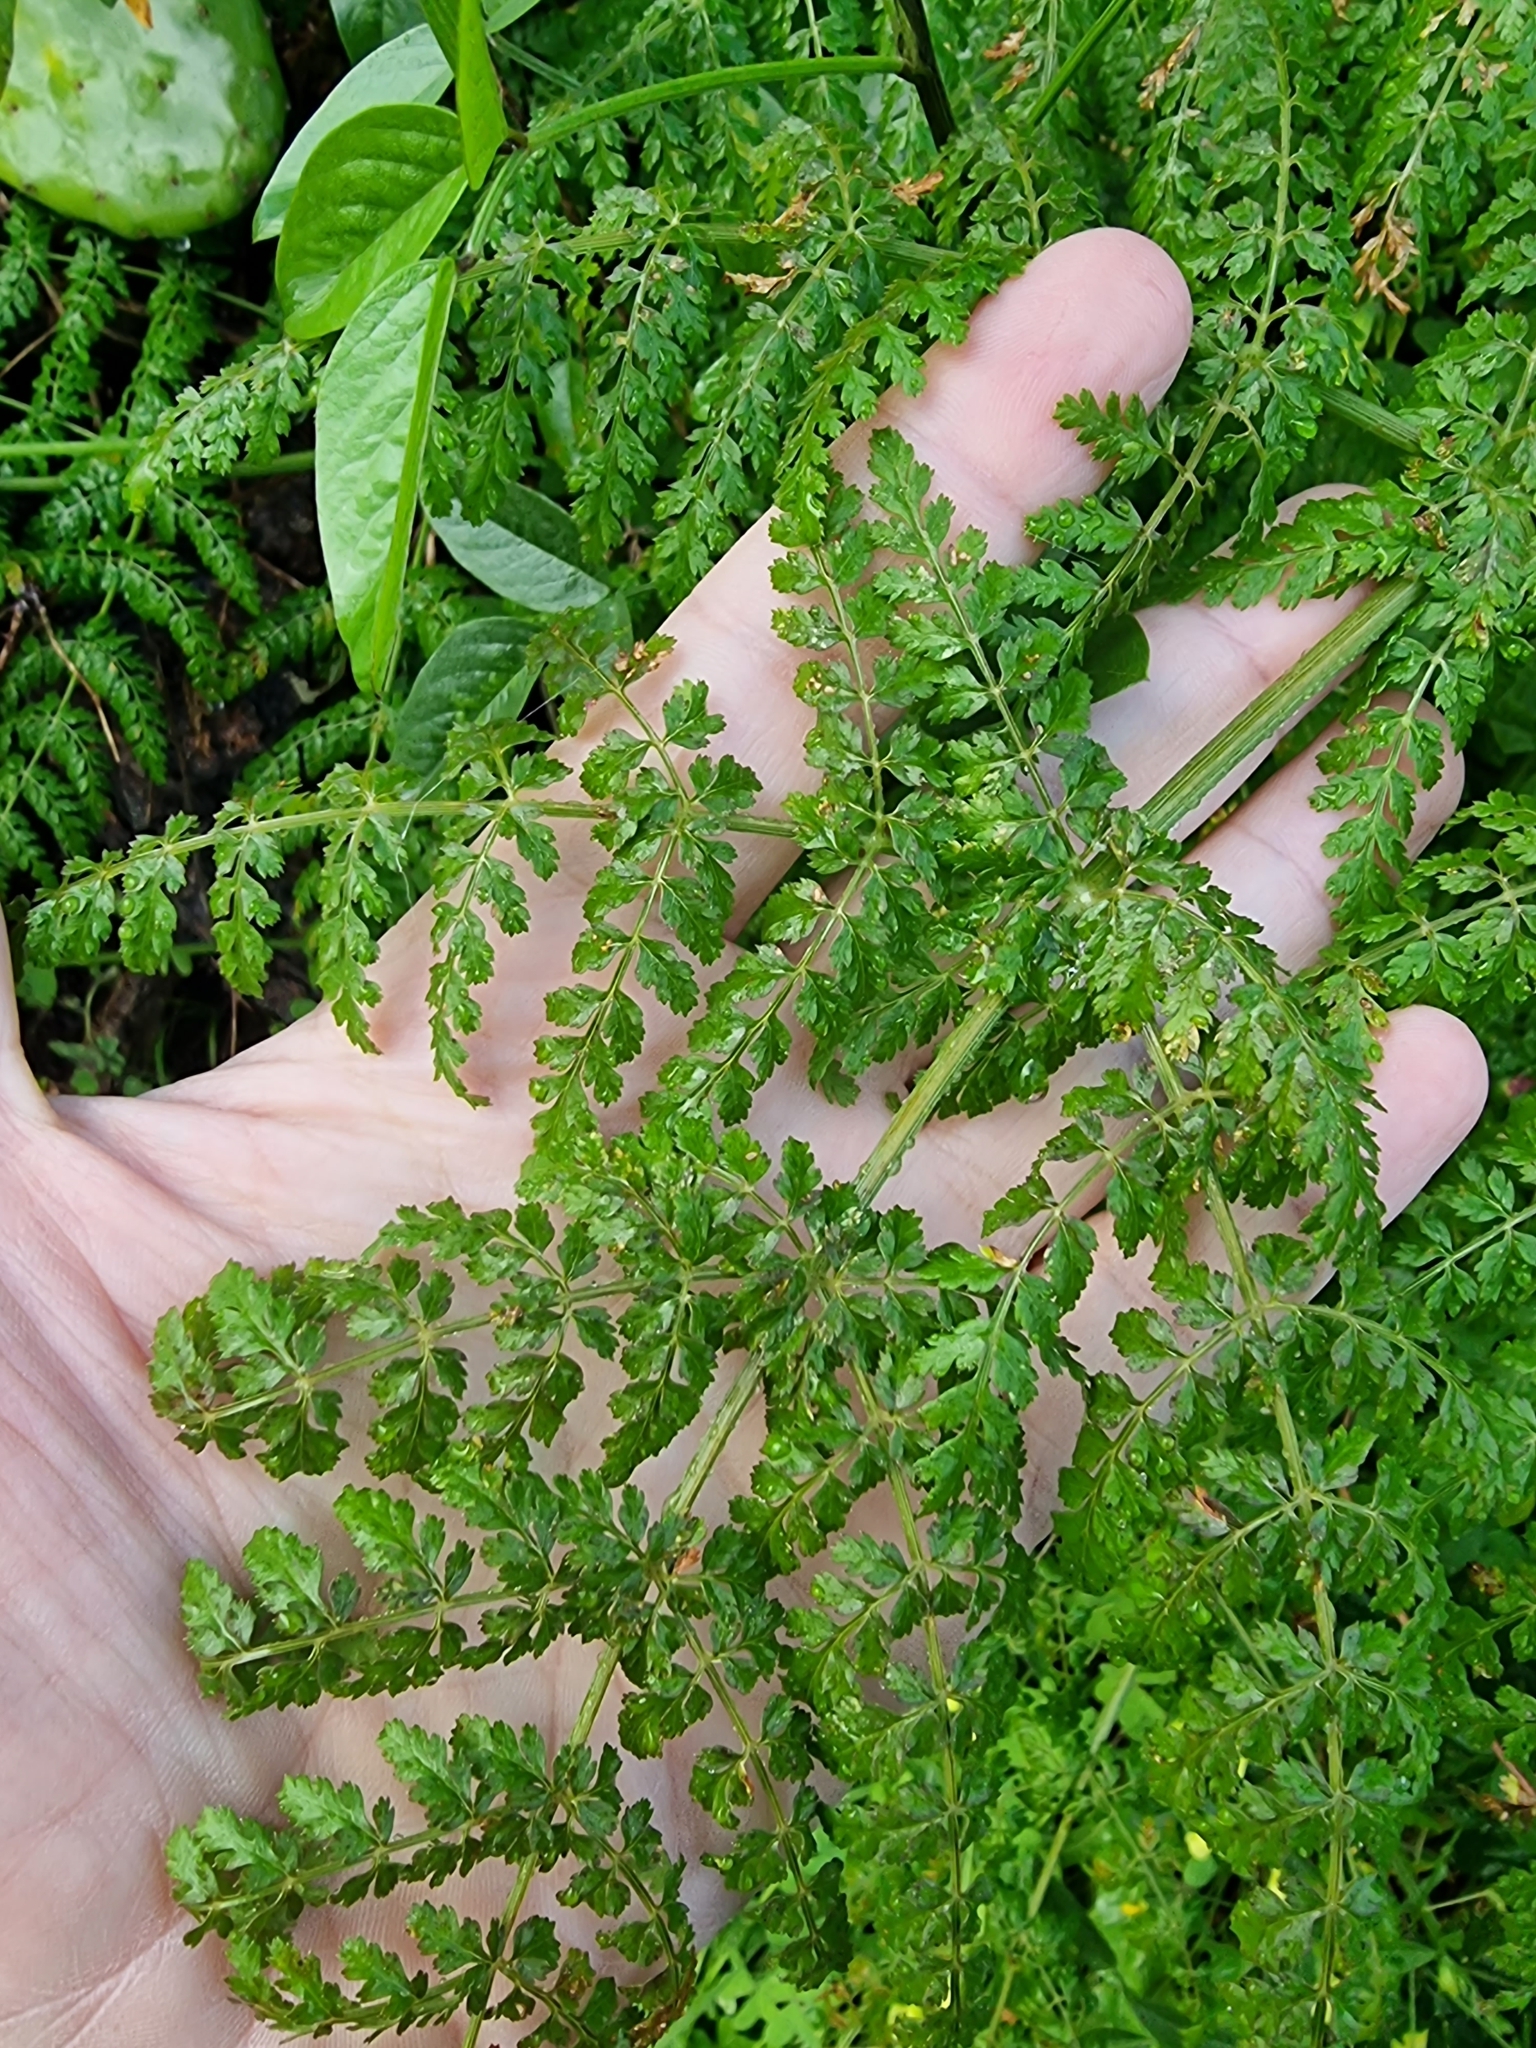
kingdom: Plantae
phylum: Tracheophyta
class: Magnoliopsida
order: Apiales
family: Apiaceae
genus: Daucus
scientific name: Daucus edulis
